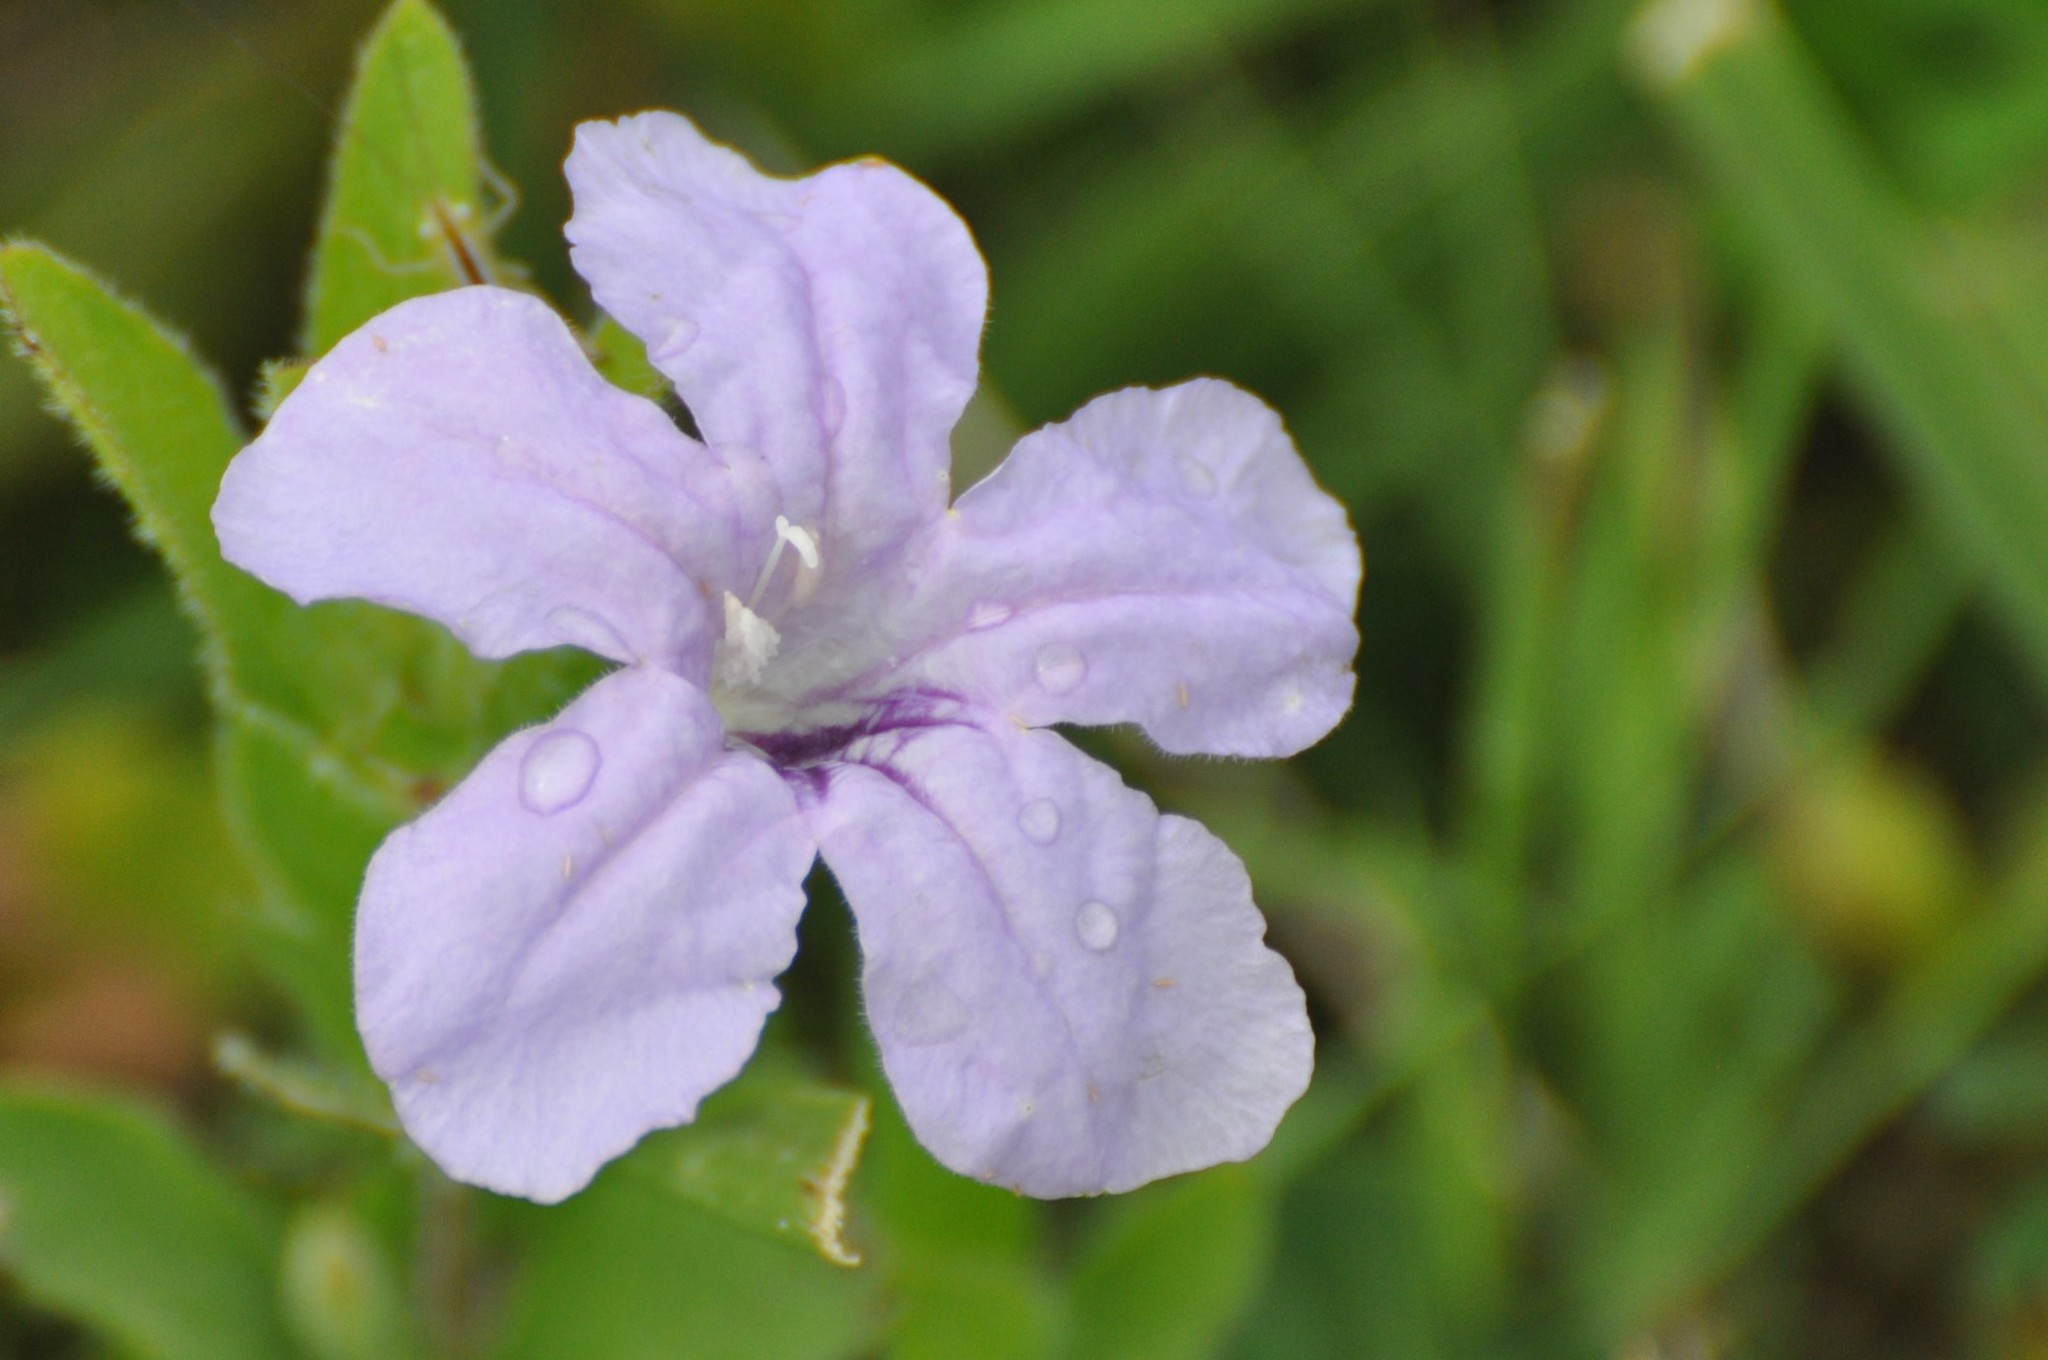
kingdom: Plantae
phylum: Tracheophyta
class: Magnoliopsida
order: Lamiales
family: Acanthaceae
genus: Ruellia
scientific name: Ruellia humilis
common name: Fringe-leaf ruellia
